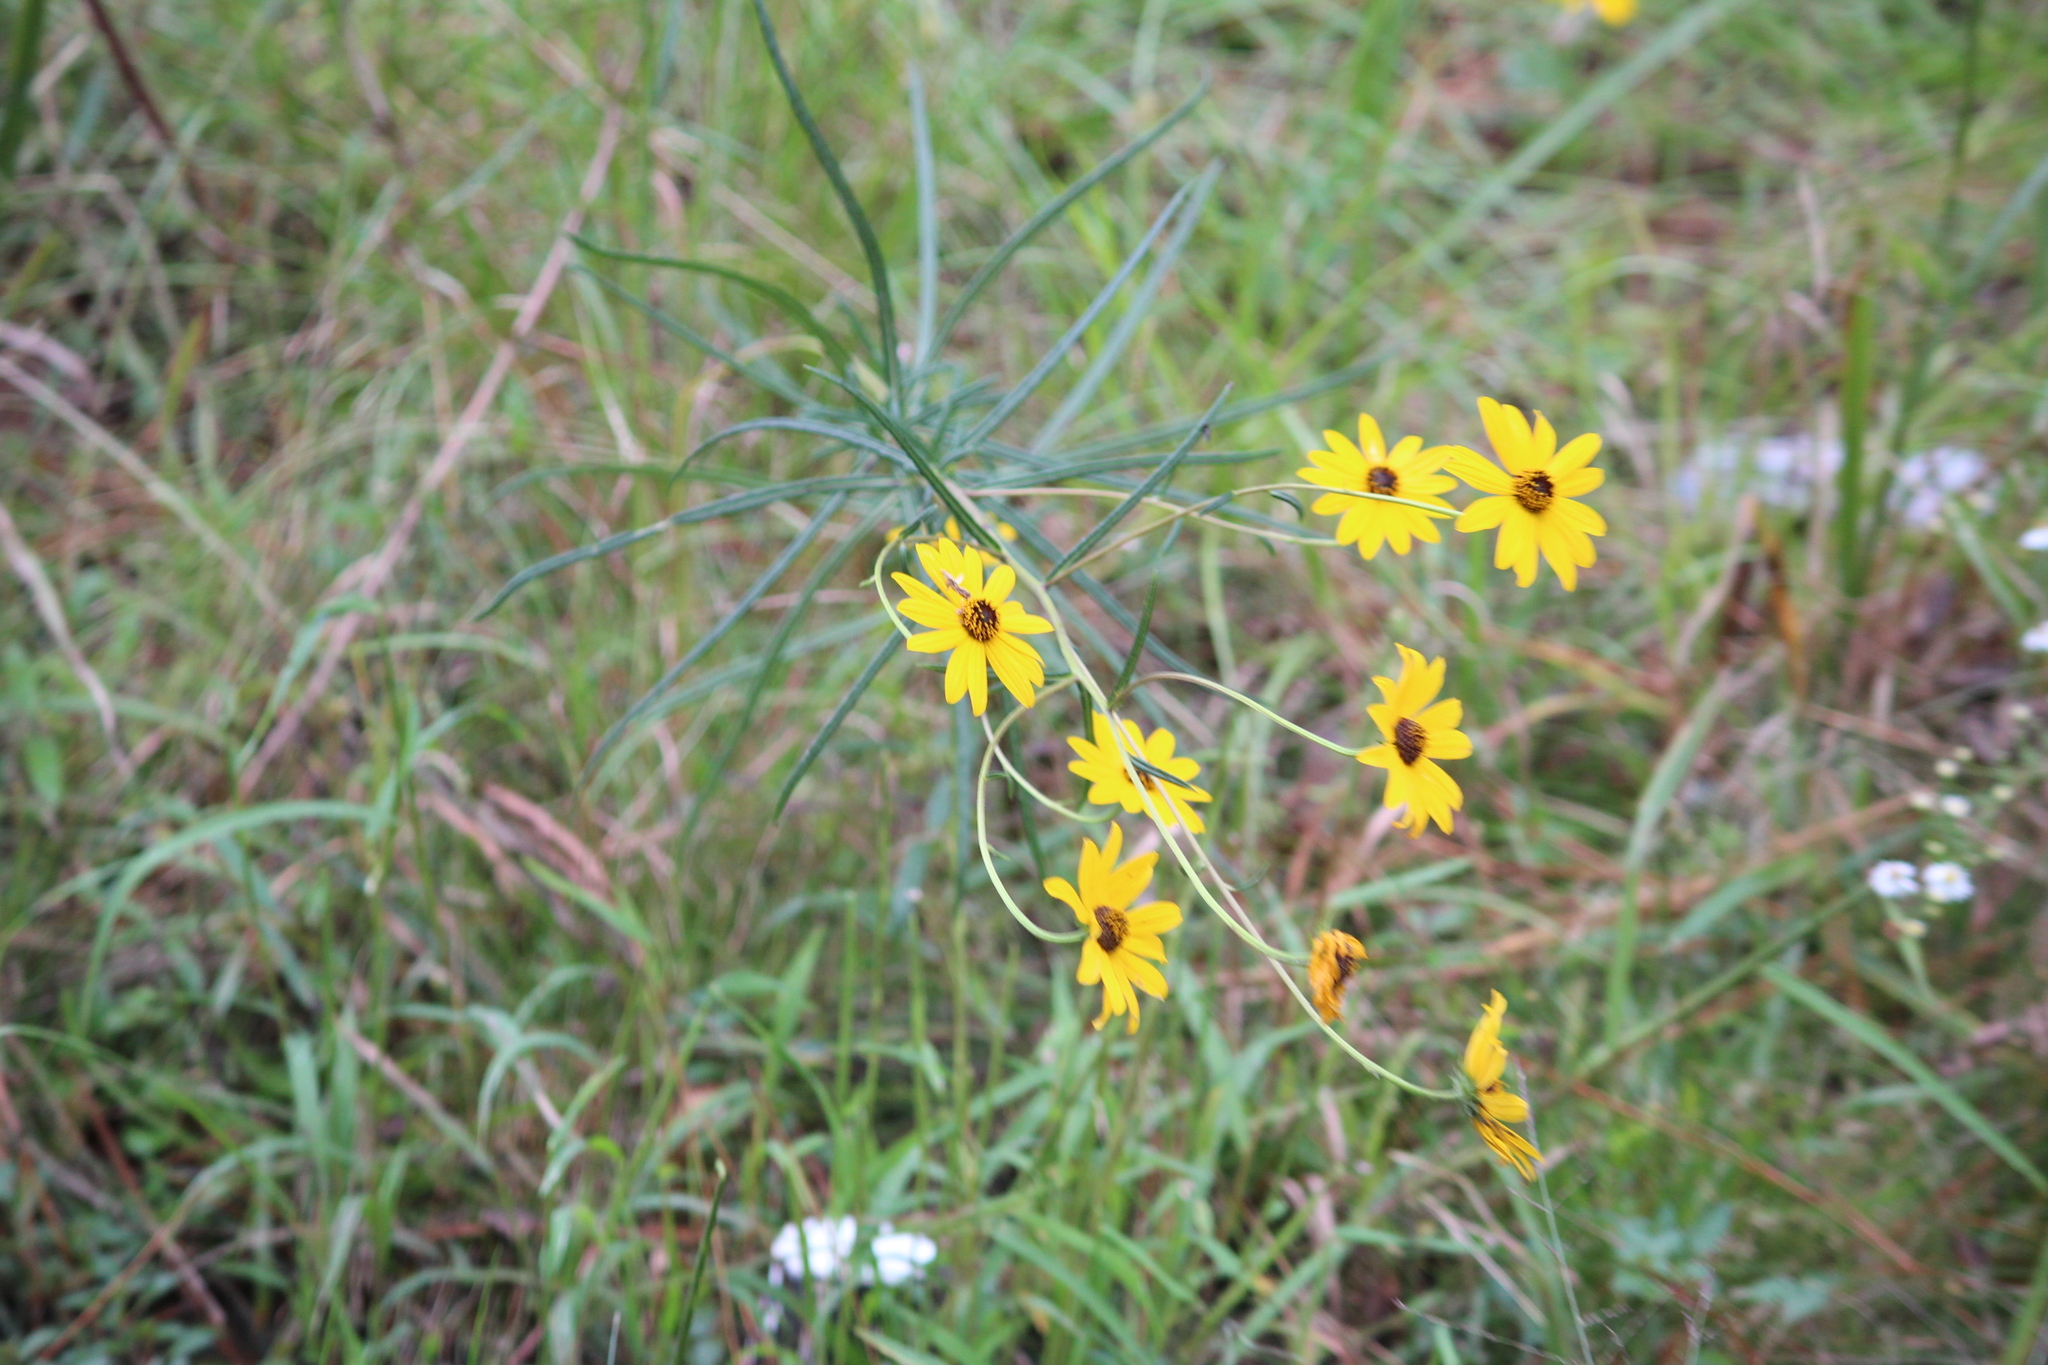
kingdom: Plantae
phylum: Tracheophyta
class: Magnoliopsida
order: Asterales
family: Asteraceae
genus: Helianthus
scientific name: Helianthus angustifolius
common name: Swamp sunflower
